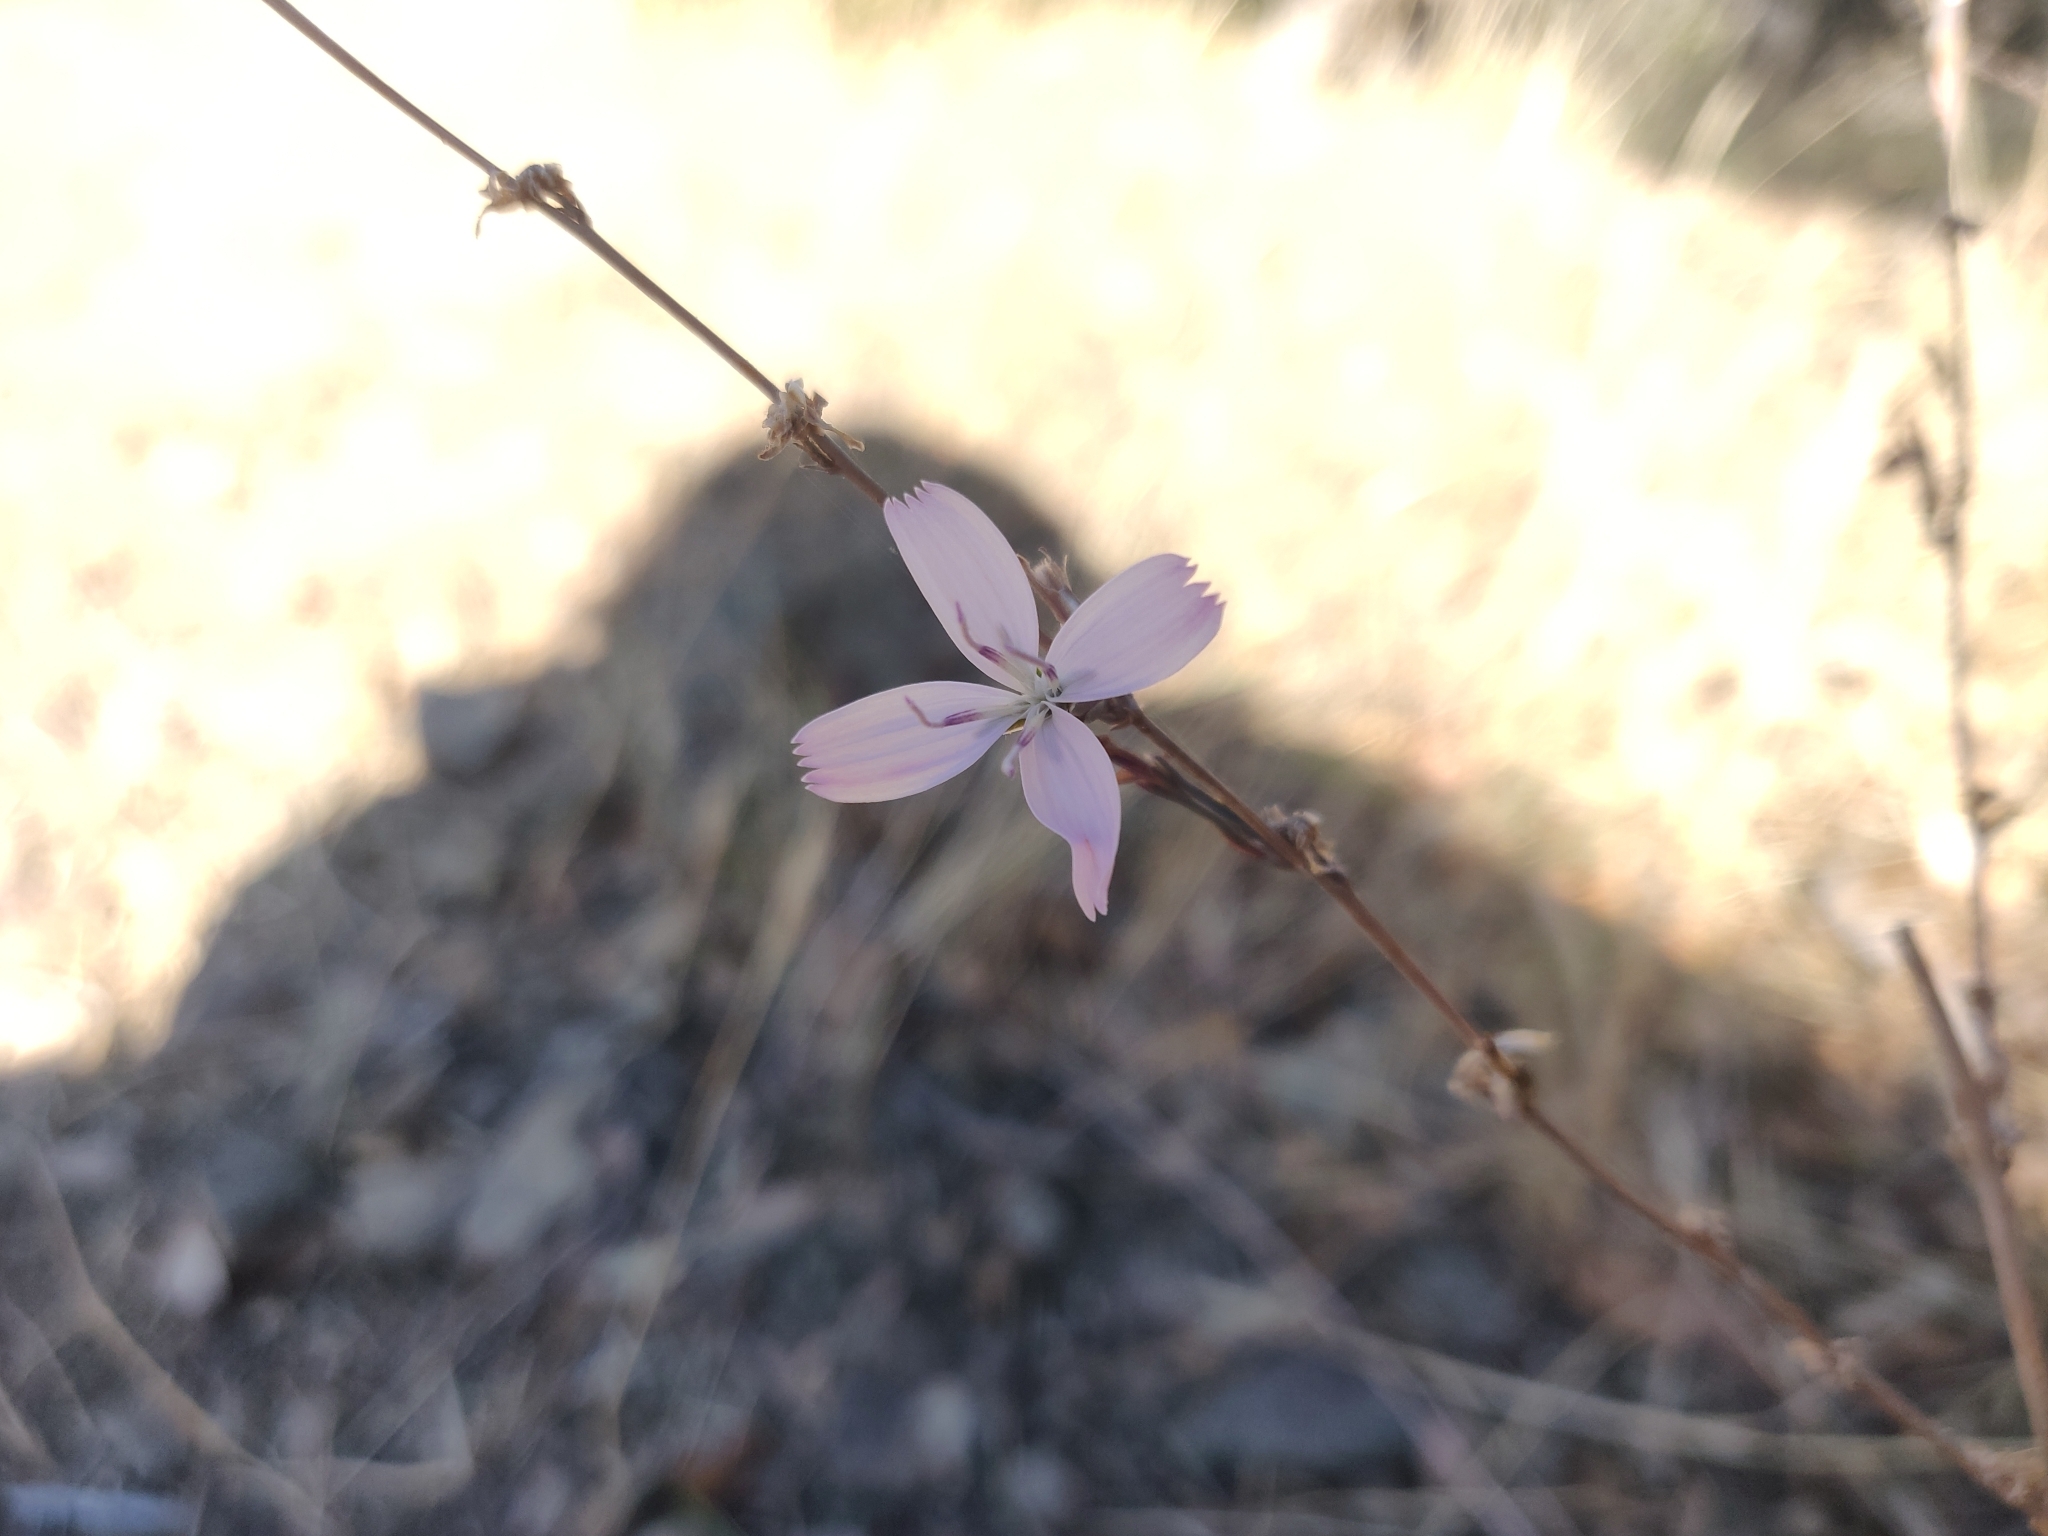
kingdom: Plantae
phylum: Tracheophyta
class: Magnoliopsida
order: Asterales
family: Asteraceae
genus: Stephanomeria
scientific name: Stephanomeria virgata
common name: Virgate wirelettuce
